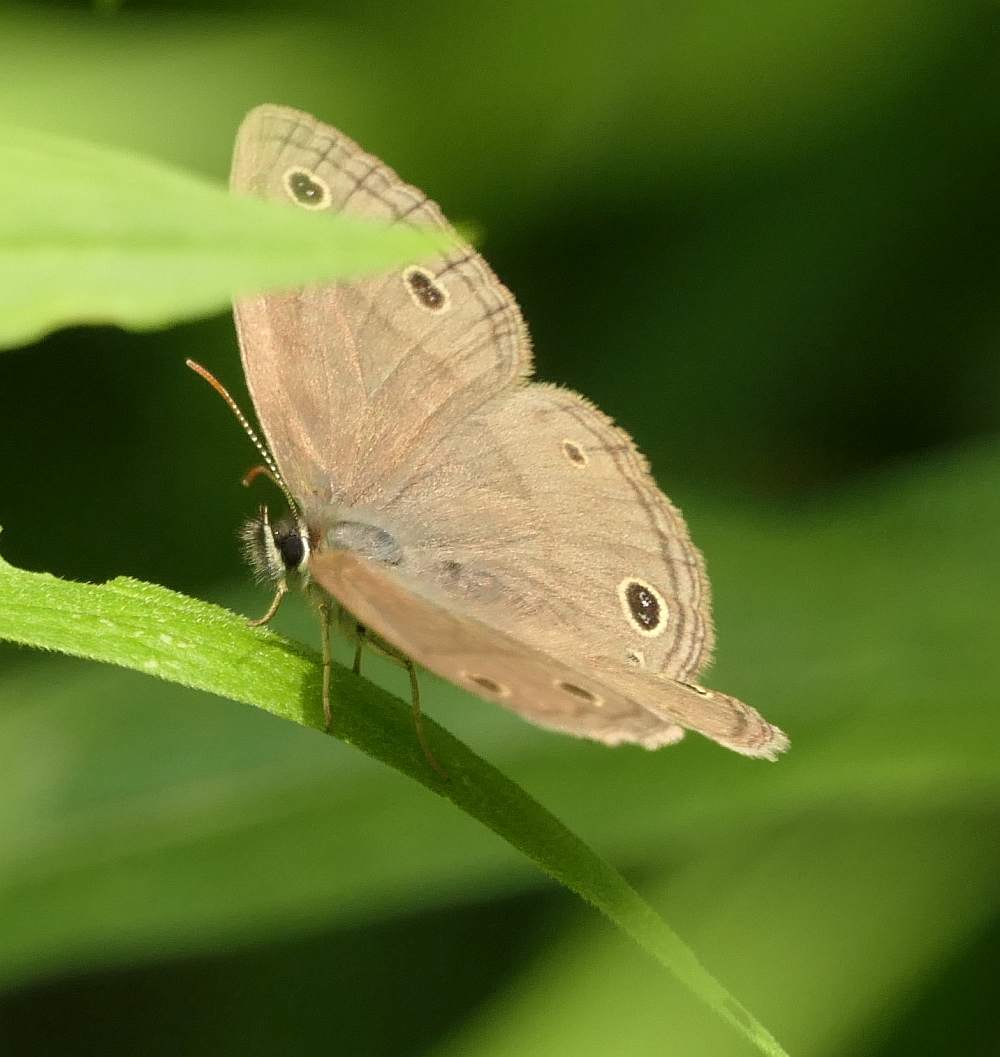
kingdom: Animalia
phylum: Arthropoda
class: Insecta
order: Lepidoptera
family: Nymphalidae
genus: Euptychia
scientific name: Euptychia cymela
